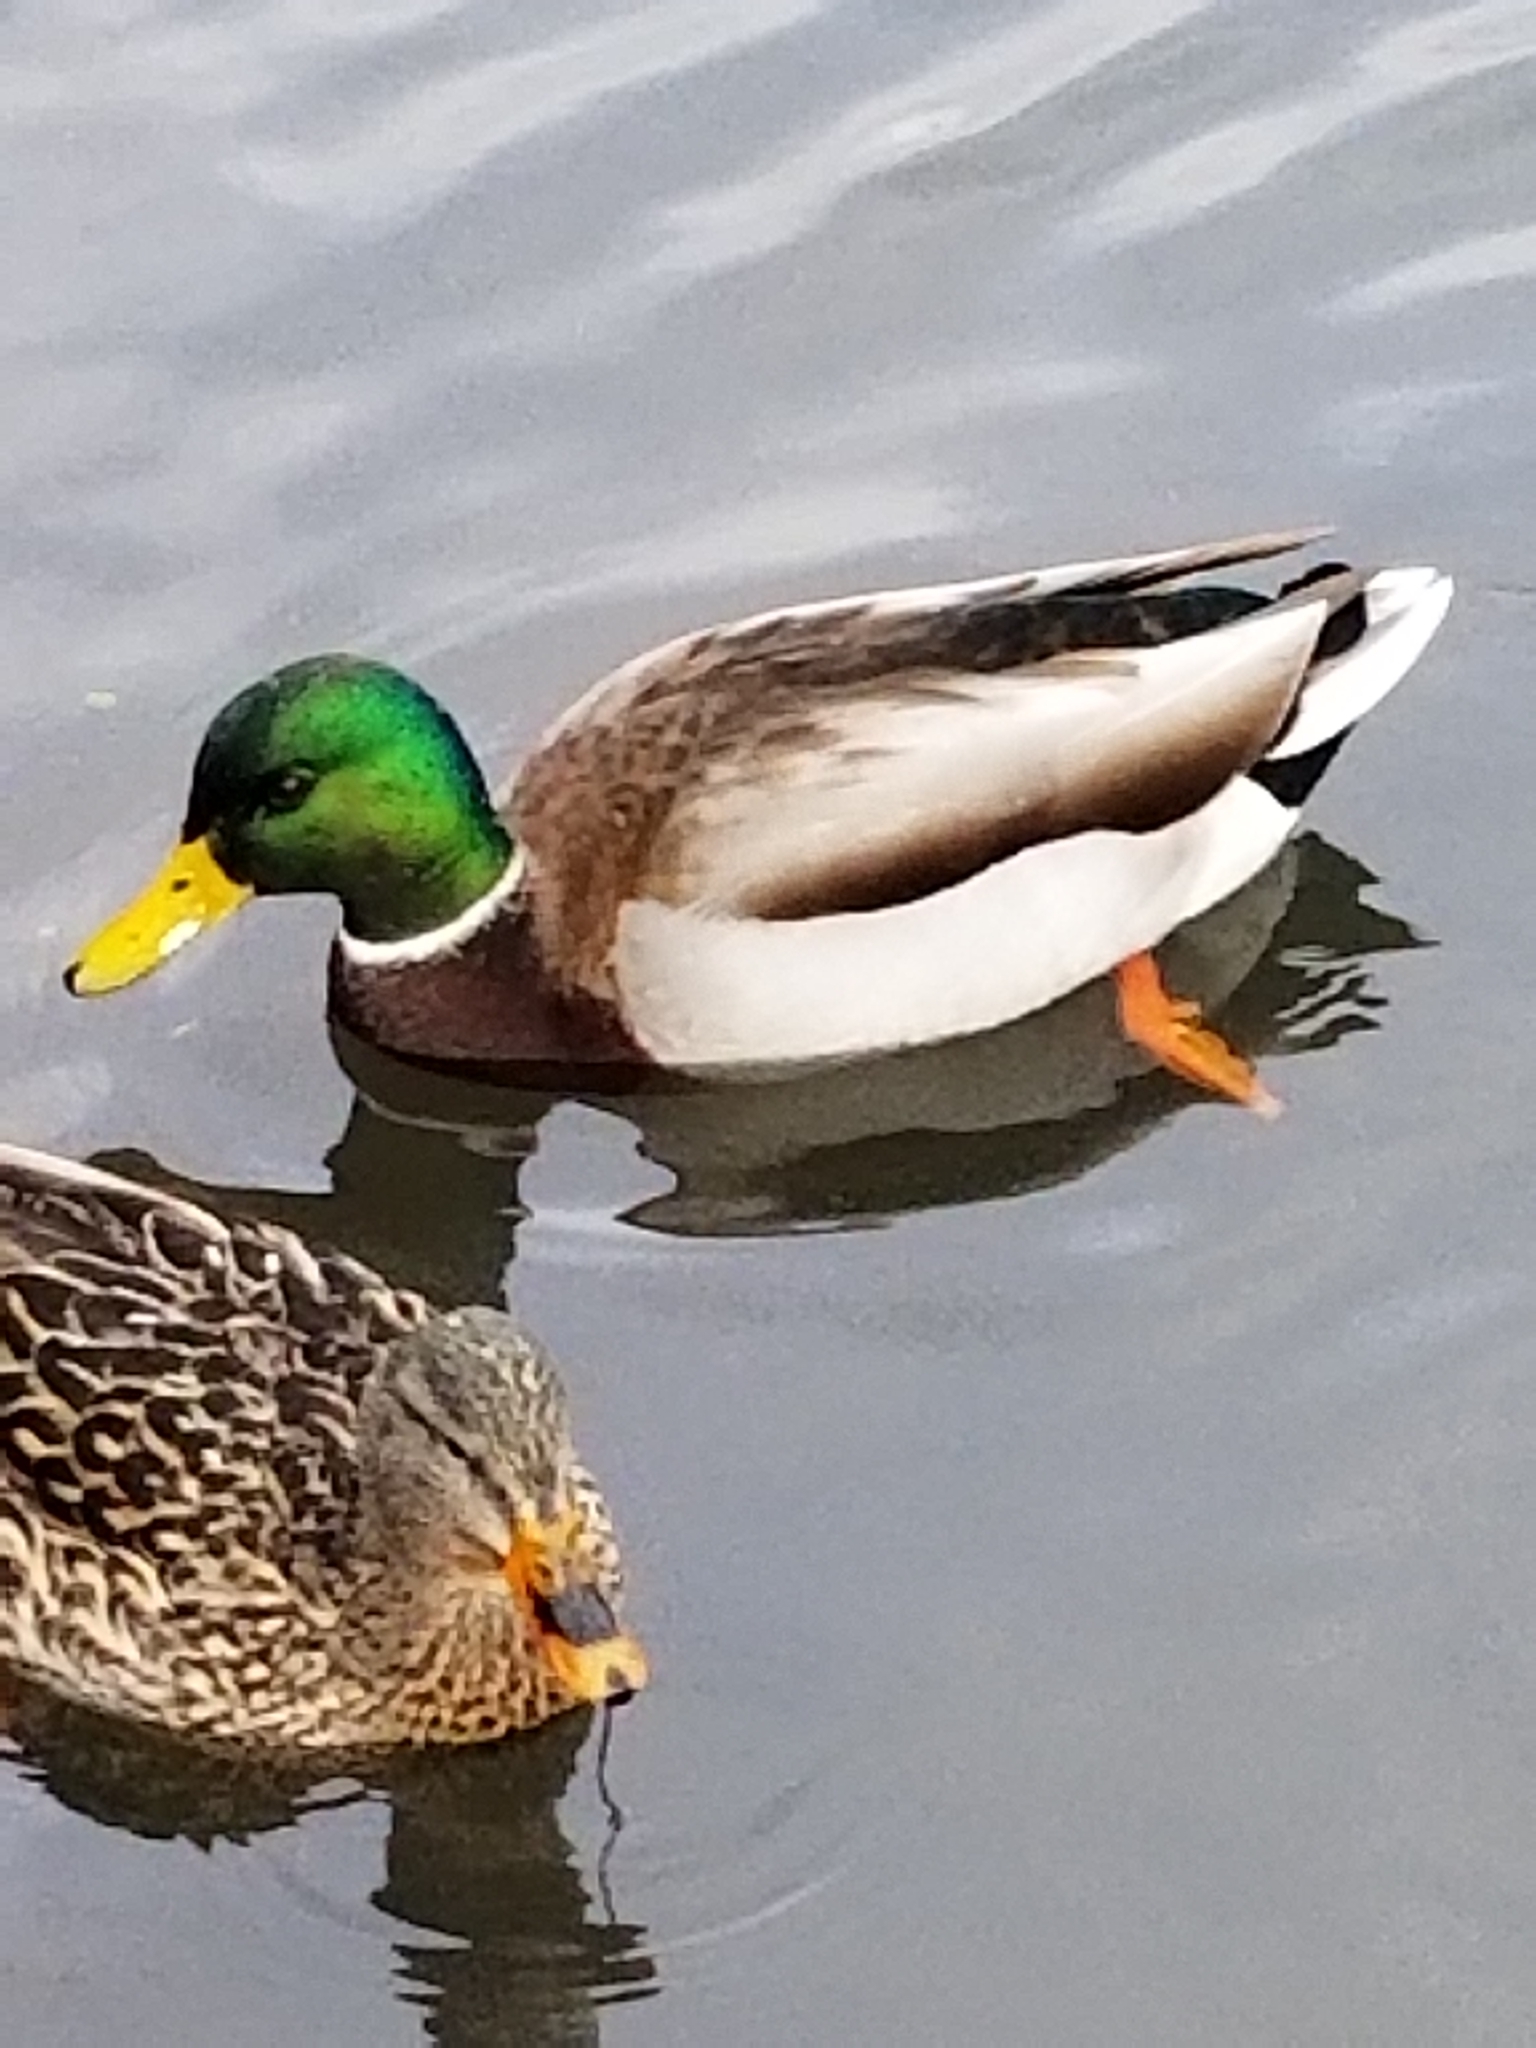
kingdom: Animalia
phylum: Chordata
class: Aves
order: Anseriformes
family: Anatidae
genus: Anas
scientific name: Anas platyrhynchos
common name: Mallard
